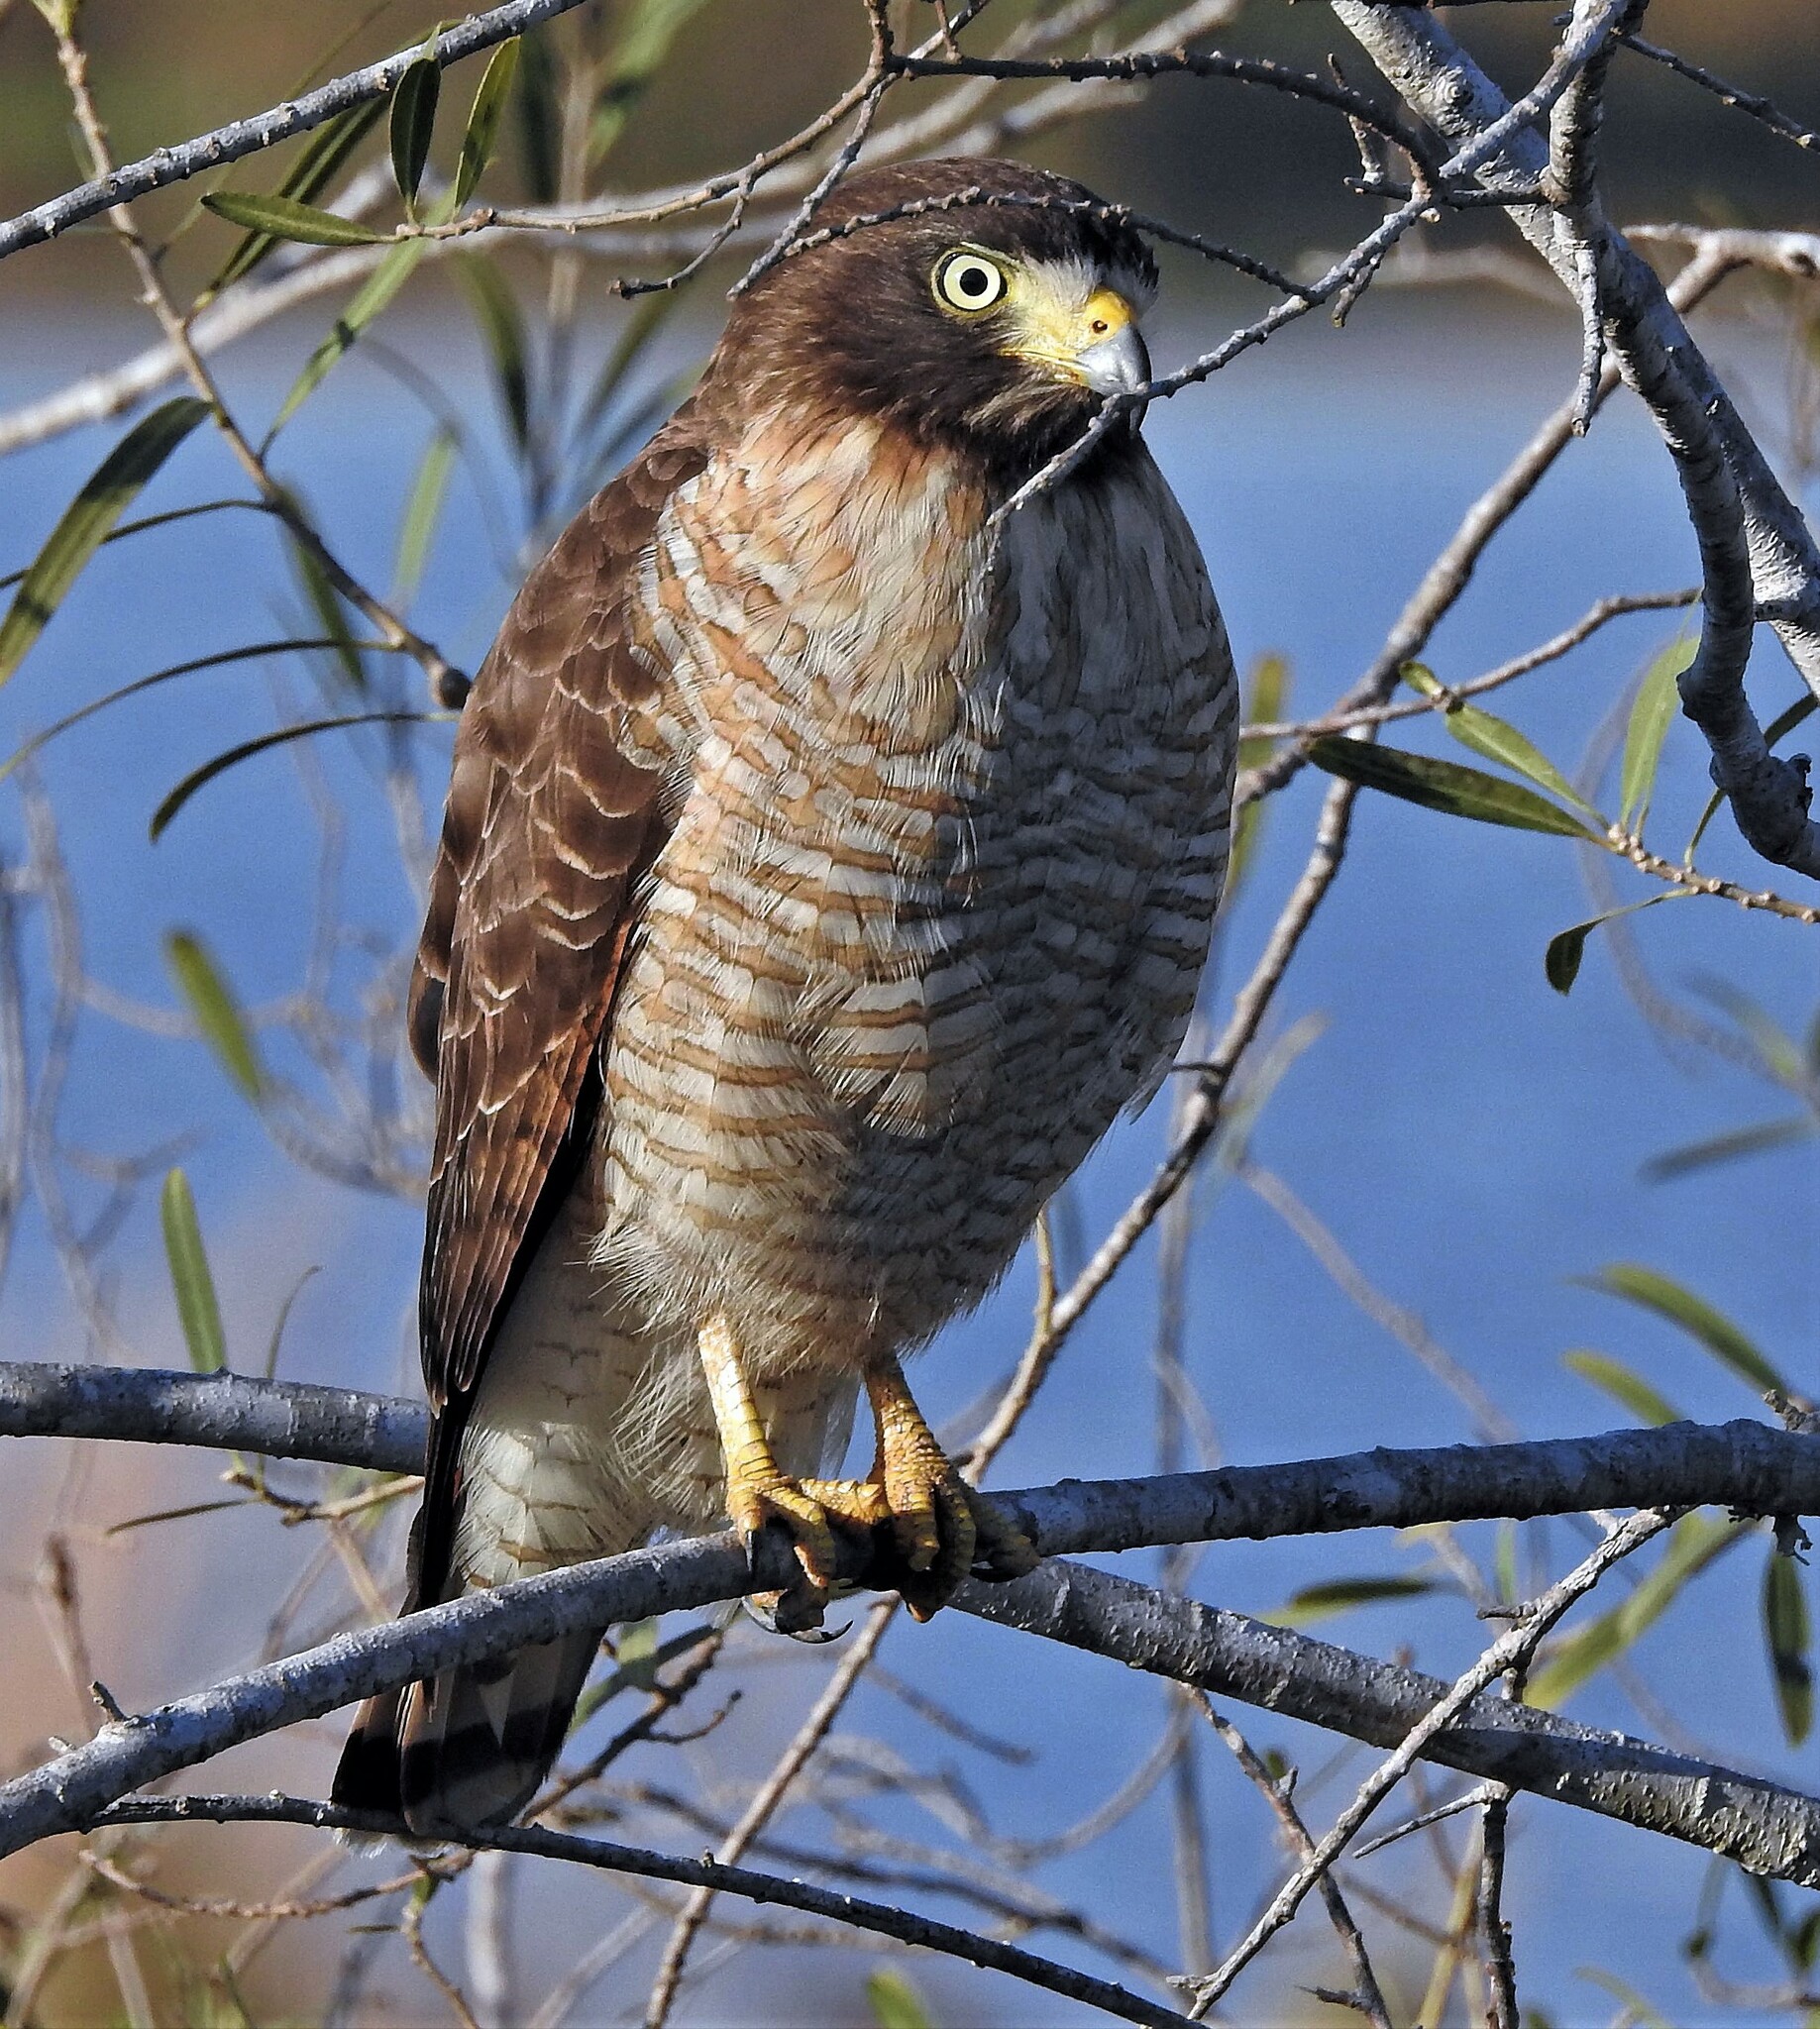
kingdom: Animalia
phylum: Chordata
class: Aves
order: Accipitriformes
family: Accipitridae
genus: Rupornis
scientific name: Rupornis magnirostris
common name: Roadside hawk
